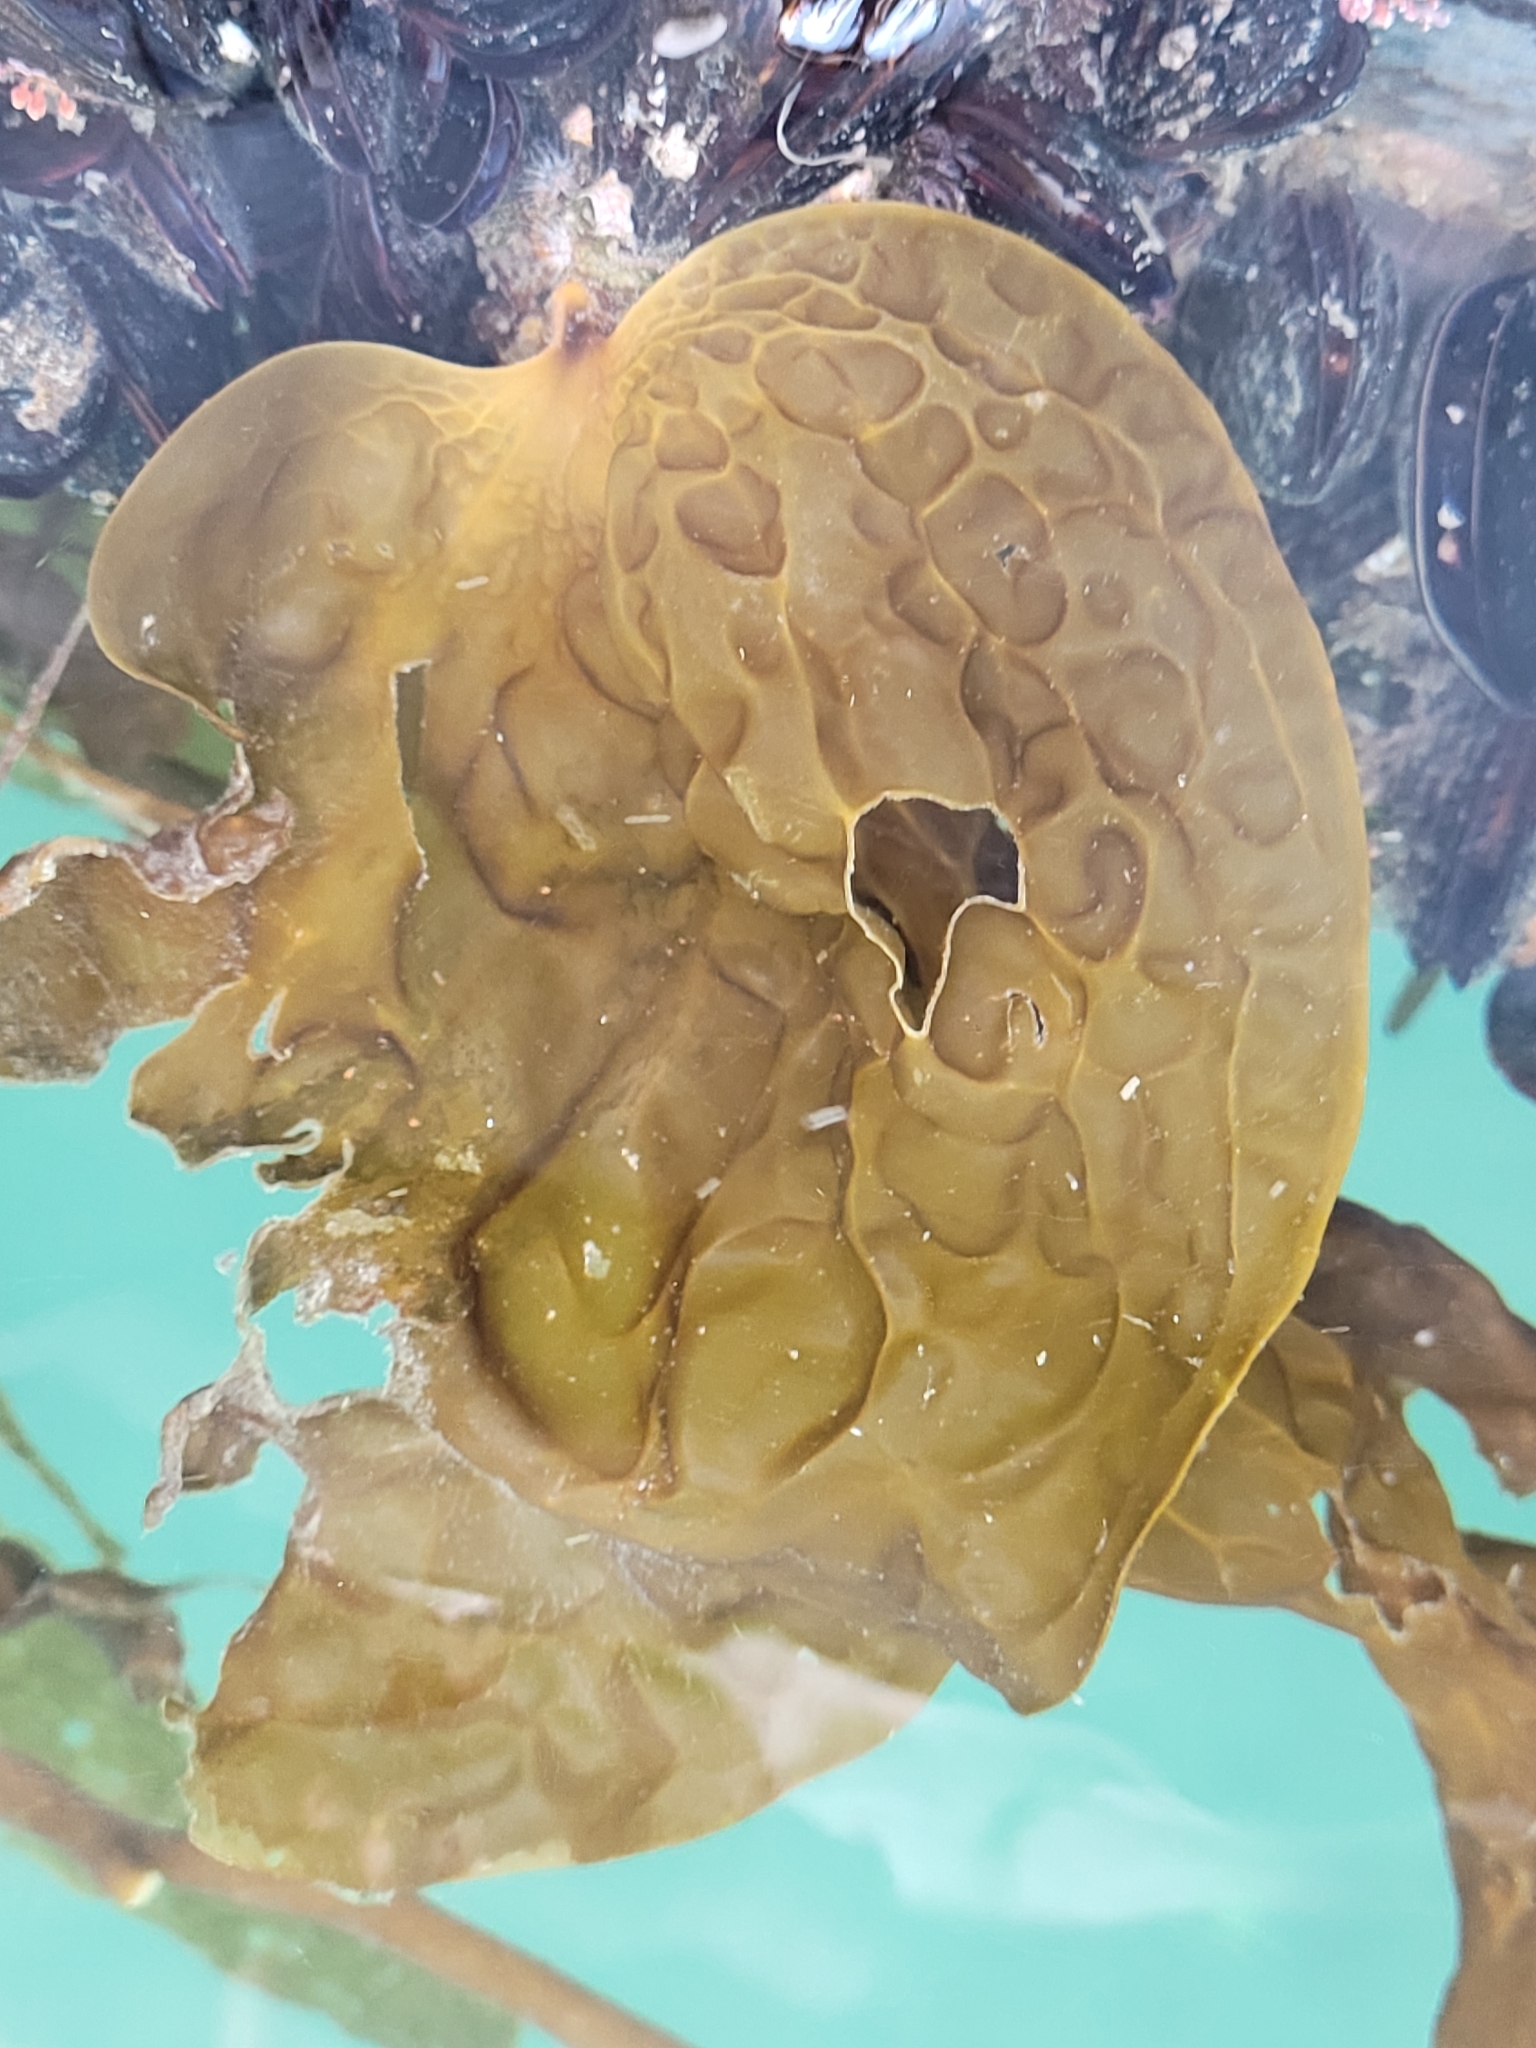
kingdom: Chromista
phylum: Ochrophyta
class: Phaeophyceae
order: Laminariales
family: Costariaceae
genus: Dictyoneurum
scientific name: Dictyoneurum californicum
